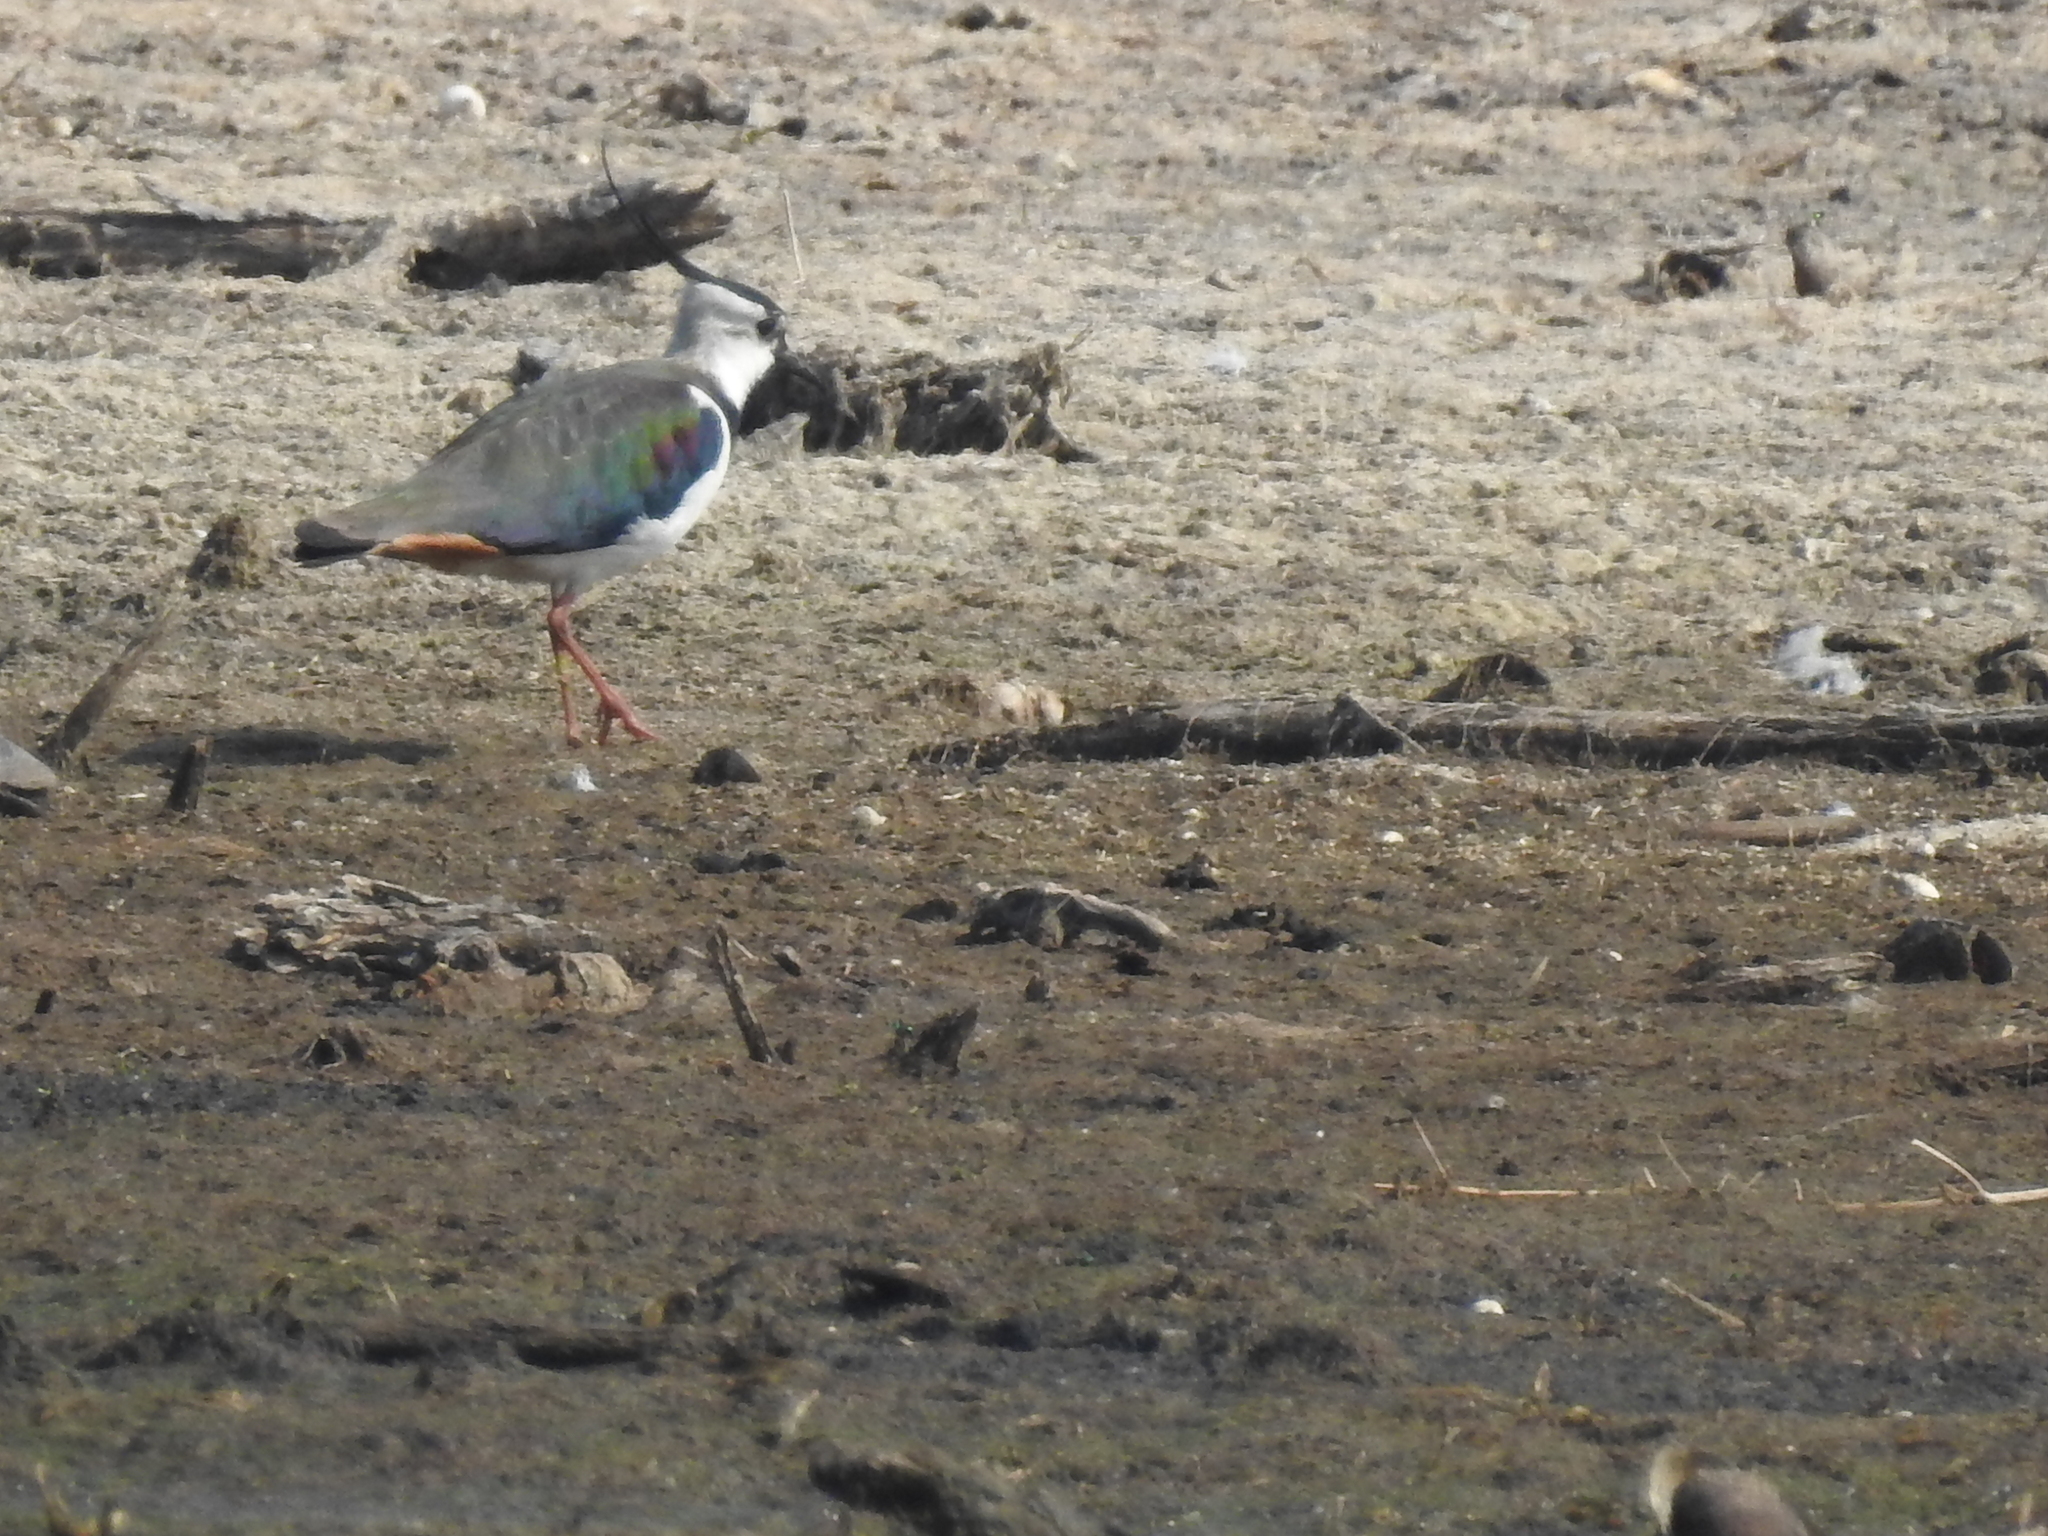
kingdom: Animalia
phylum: Chordata
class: Aves
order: Charadriiformes
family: Charadriidae
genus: Vanellus
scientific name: Vanellus vanellus
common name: Northern lapwing
